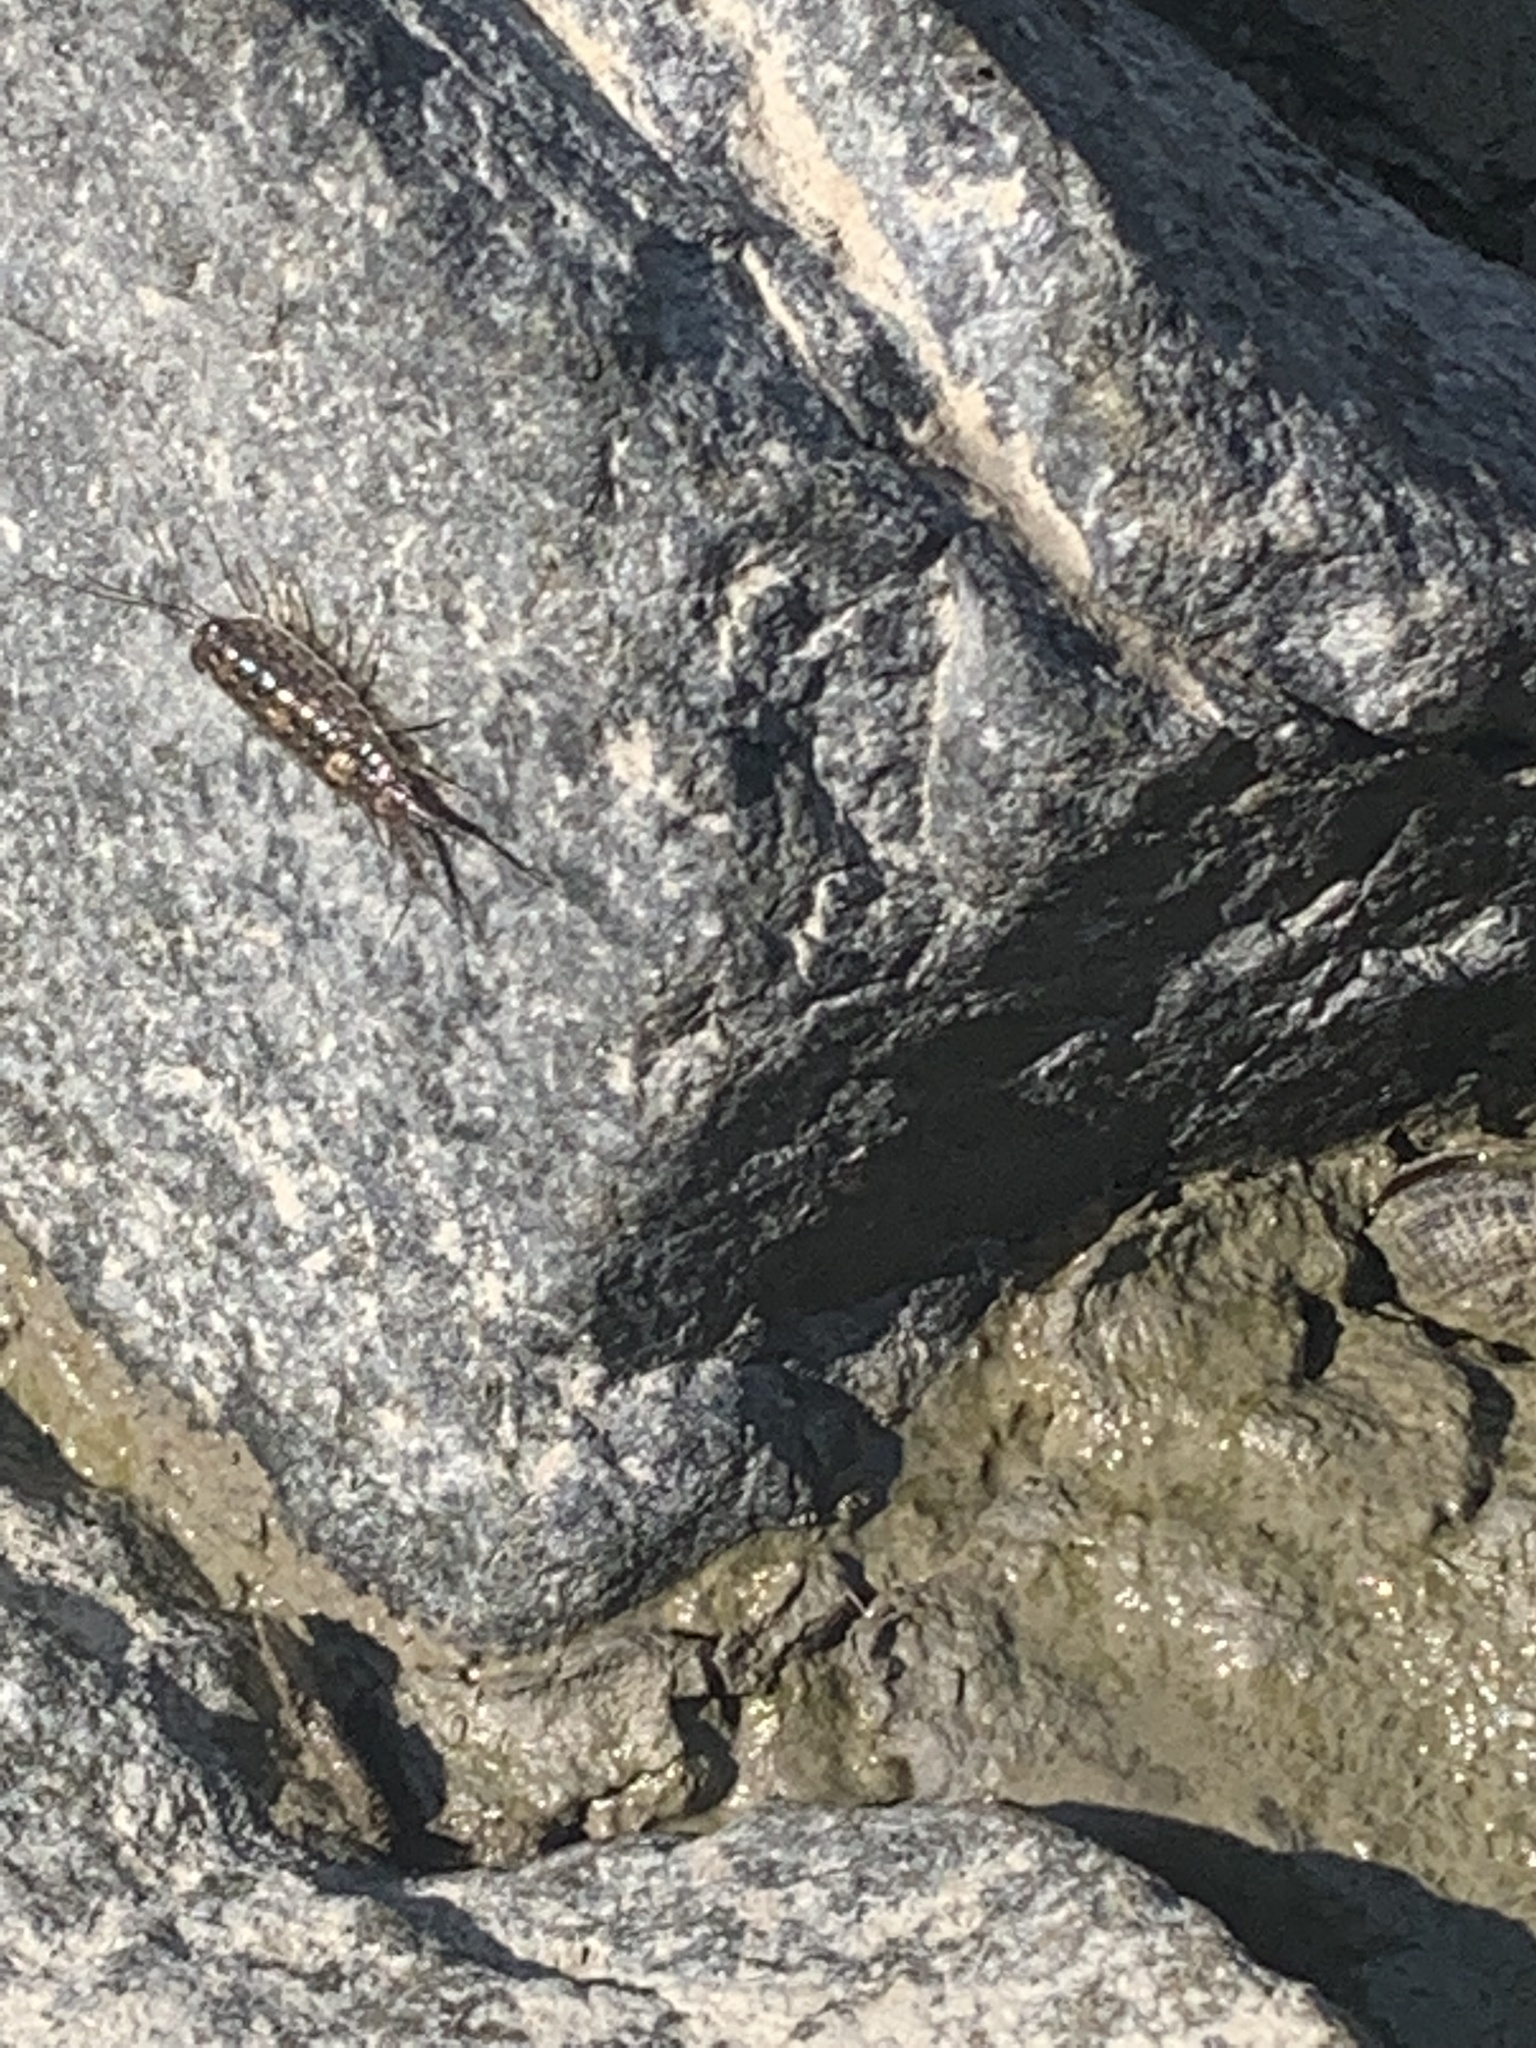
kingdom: Animalia
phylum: Arthropoda
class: Malacostraca
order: Isopoda
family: Ligiidae
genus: Ligia
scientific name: Ligia exotica
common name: Wharf roach
